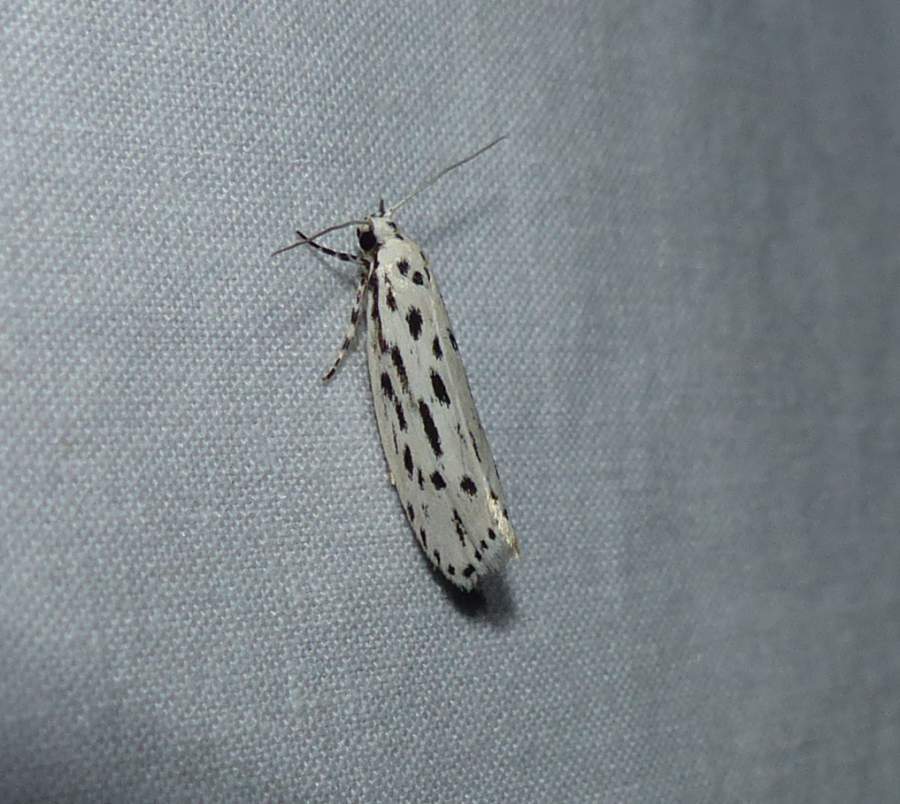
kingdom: Animalia
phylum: Arthropoda
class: Insecta
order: Lepidoptera
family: Ethmiidae
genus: Ethmia
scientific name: Ethmia longimaculella
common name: Streaked ethmia moth
